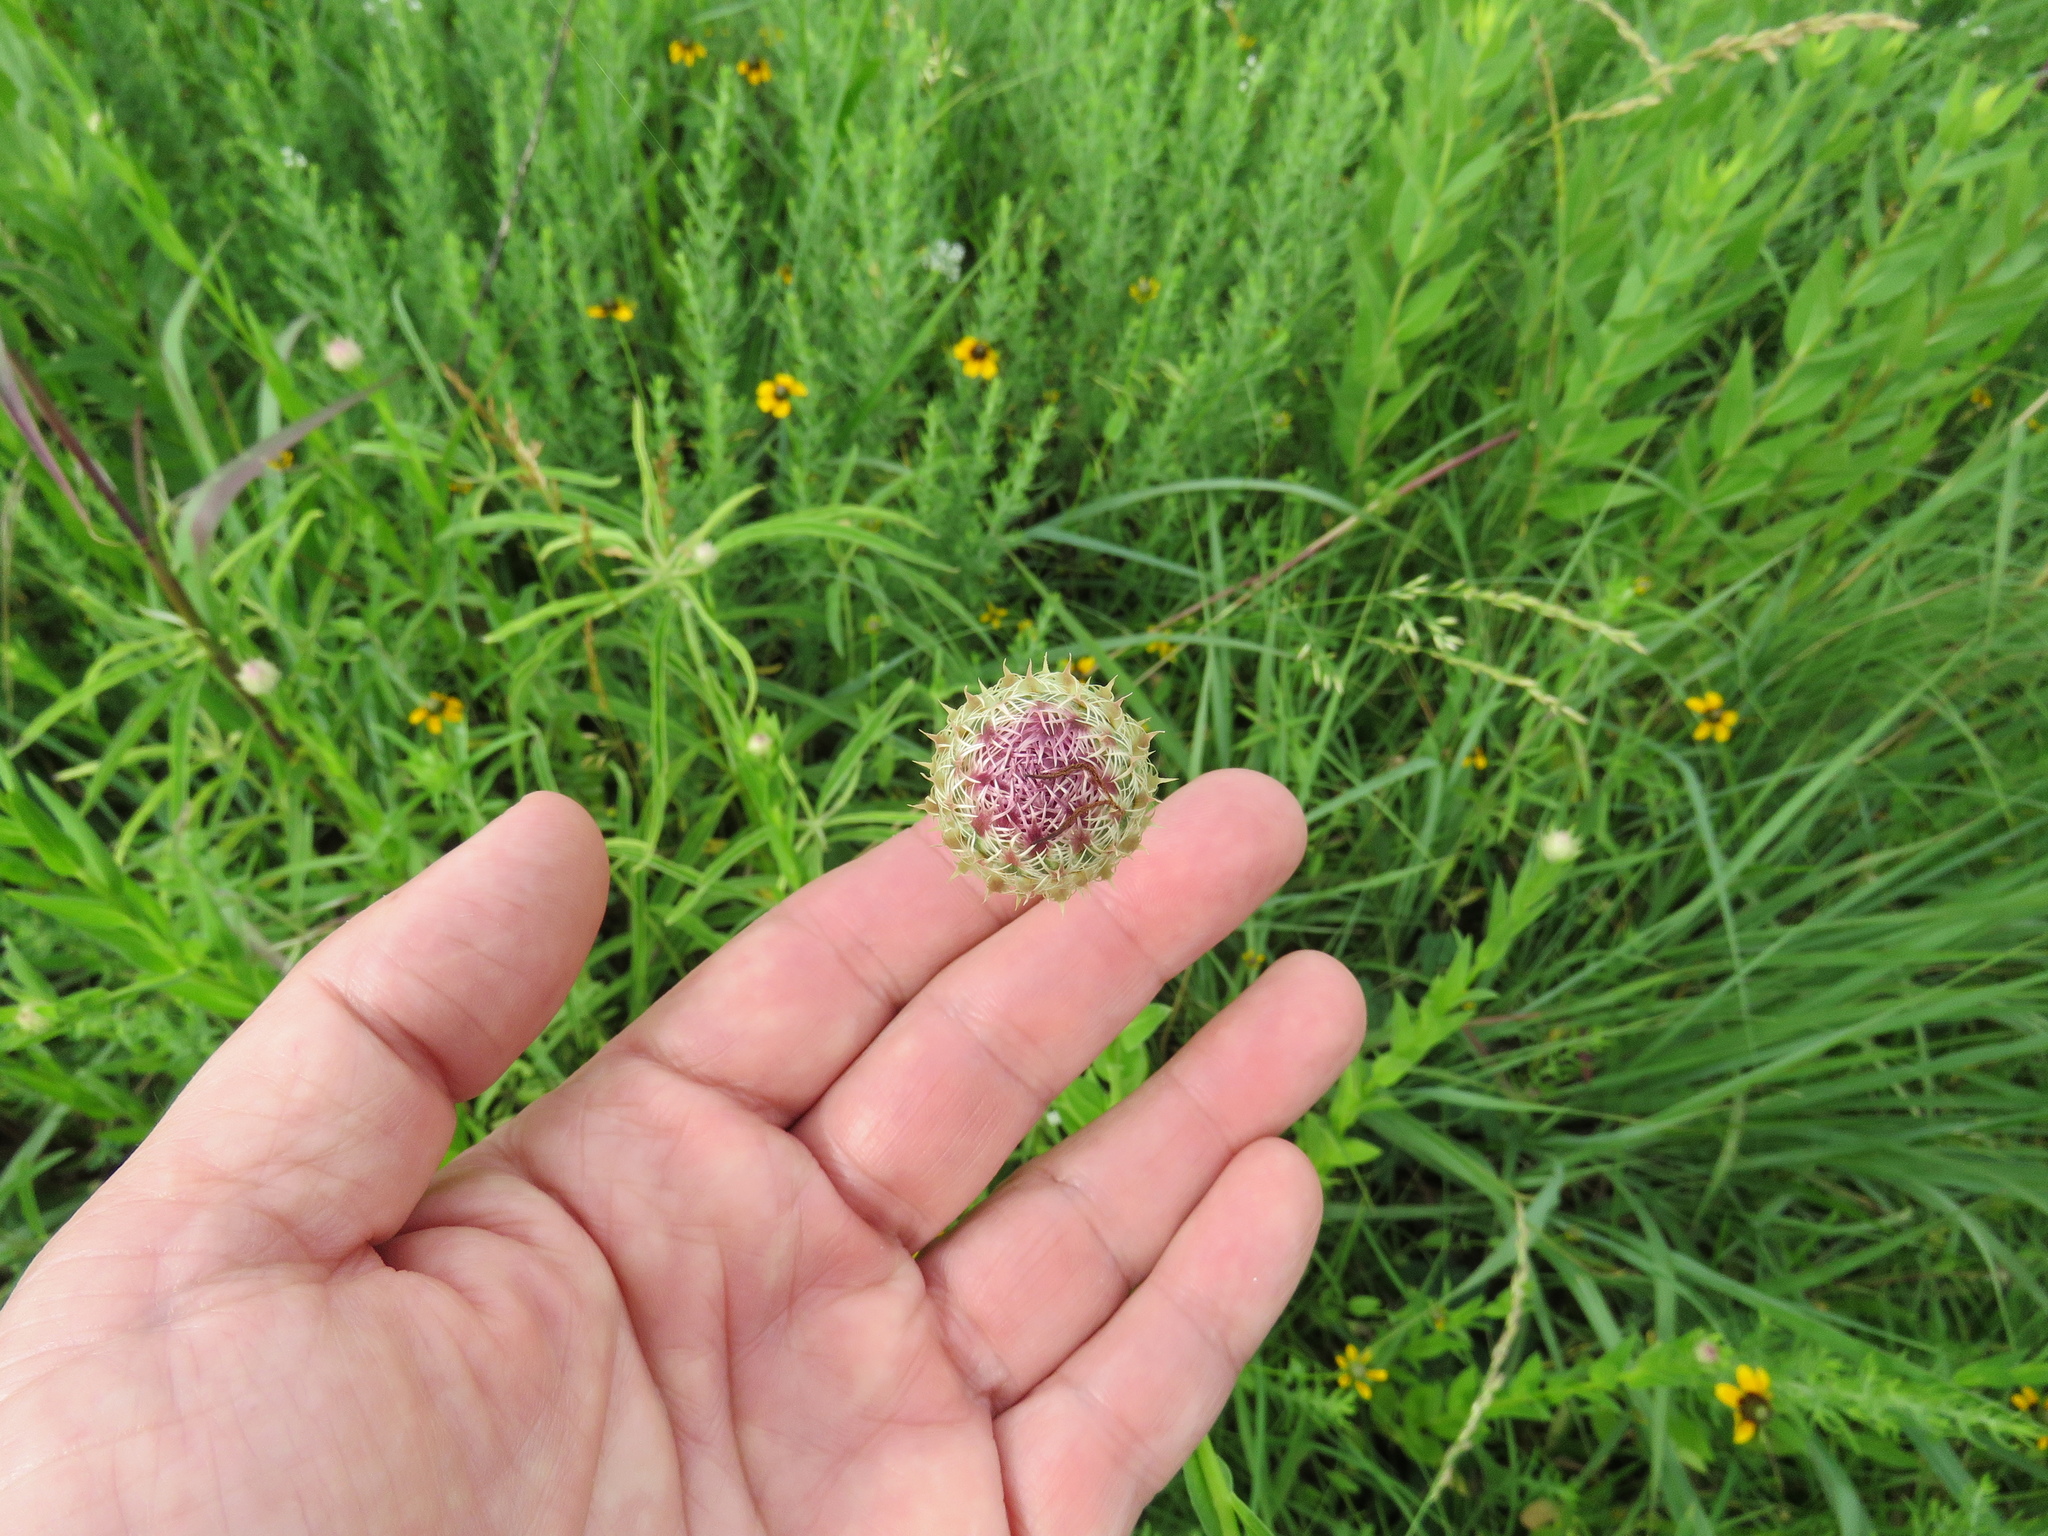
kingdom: Plantae
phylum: Tracheophyta
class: Magnoliopsida
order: Asterales
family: Asteraceae
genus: Plectocephalus
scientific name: Plectocephalus americanus
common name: American basket-flower
